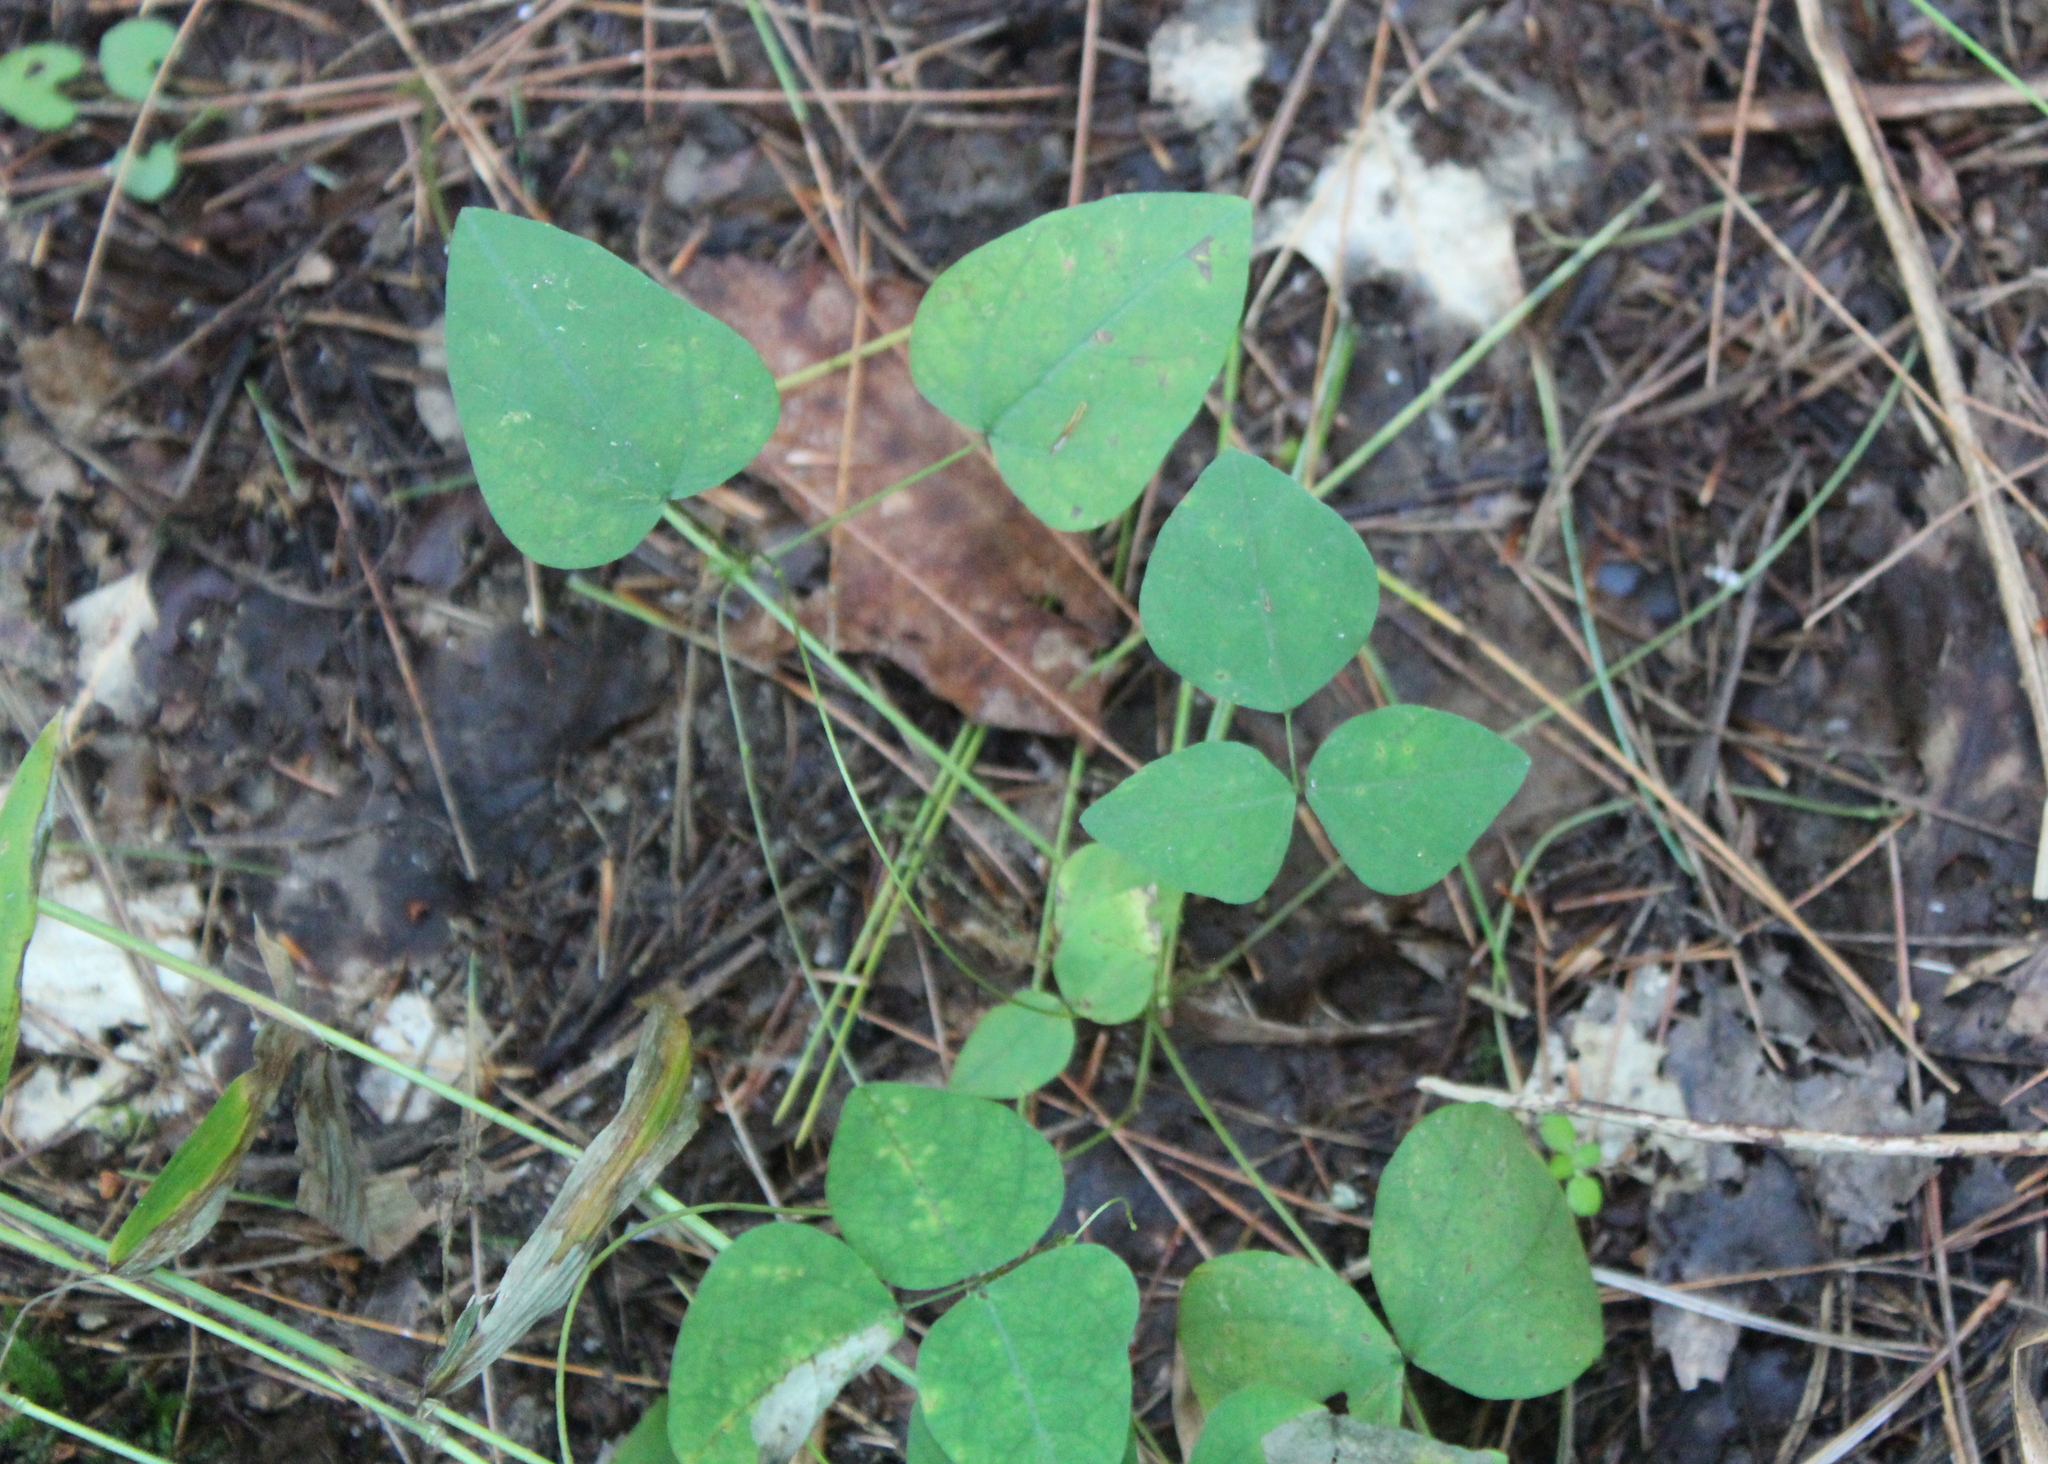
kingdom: Plantae
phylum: Tracheophyta
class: Magnoliopsida
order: Fabales
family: Fabaceae
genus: Amphicarpaea
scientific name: Amphicarpaea bracteata
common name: American hog peanut
